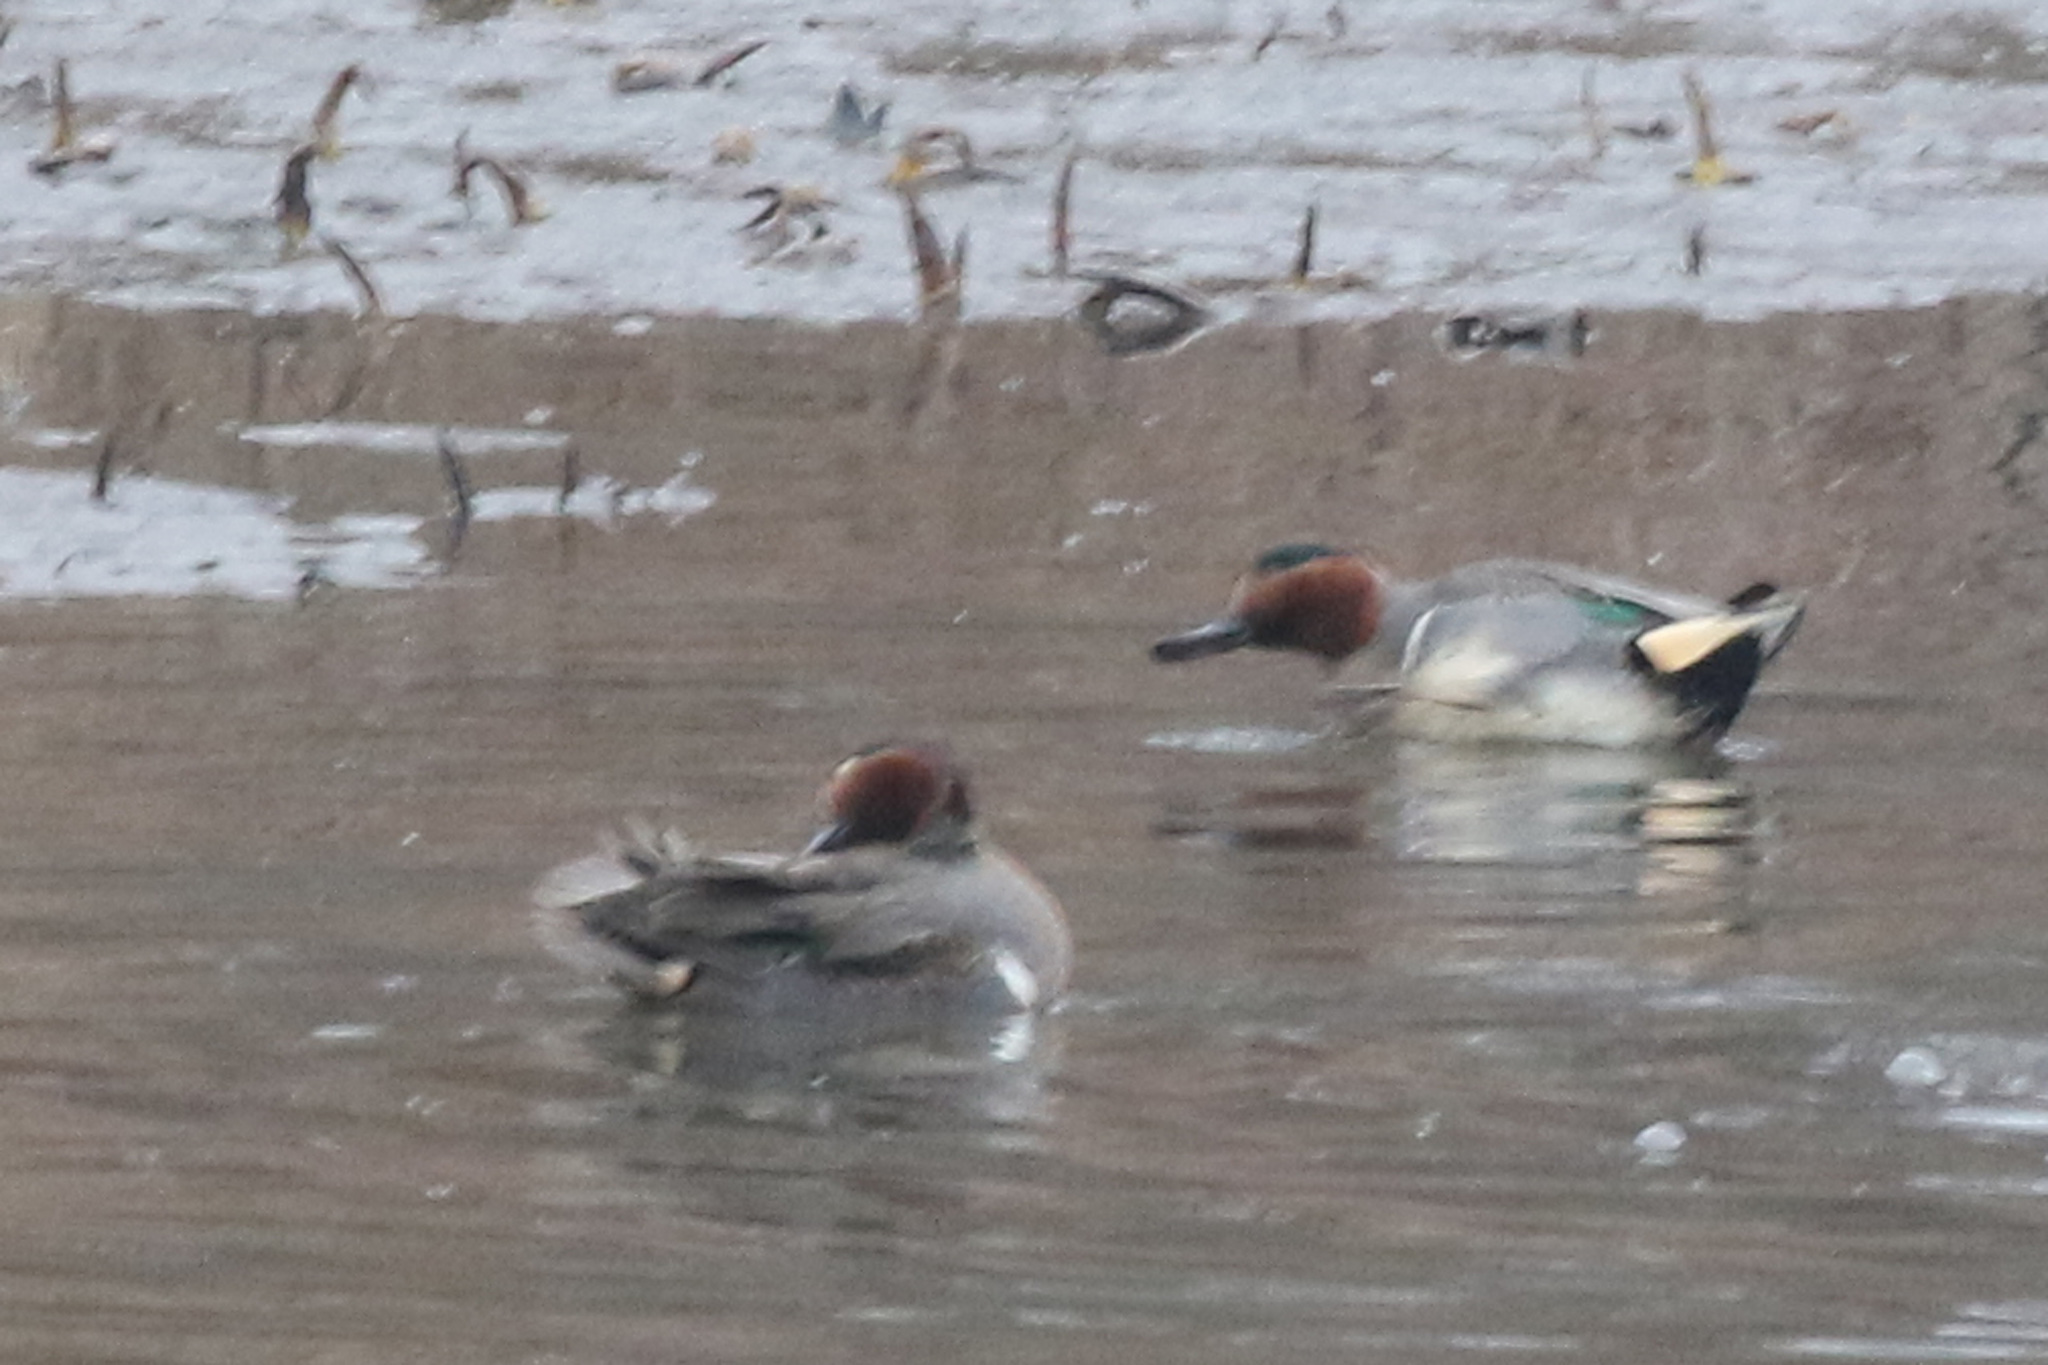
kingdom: Animalia
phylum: Chordata
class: Aves
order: Anseriformes
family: Anatidae
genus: Anas
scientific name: Anas crecca
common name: Eurasian teal
